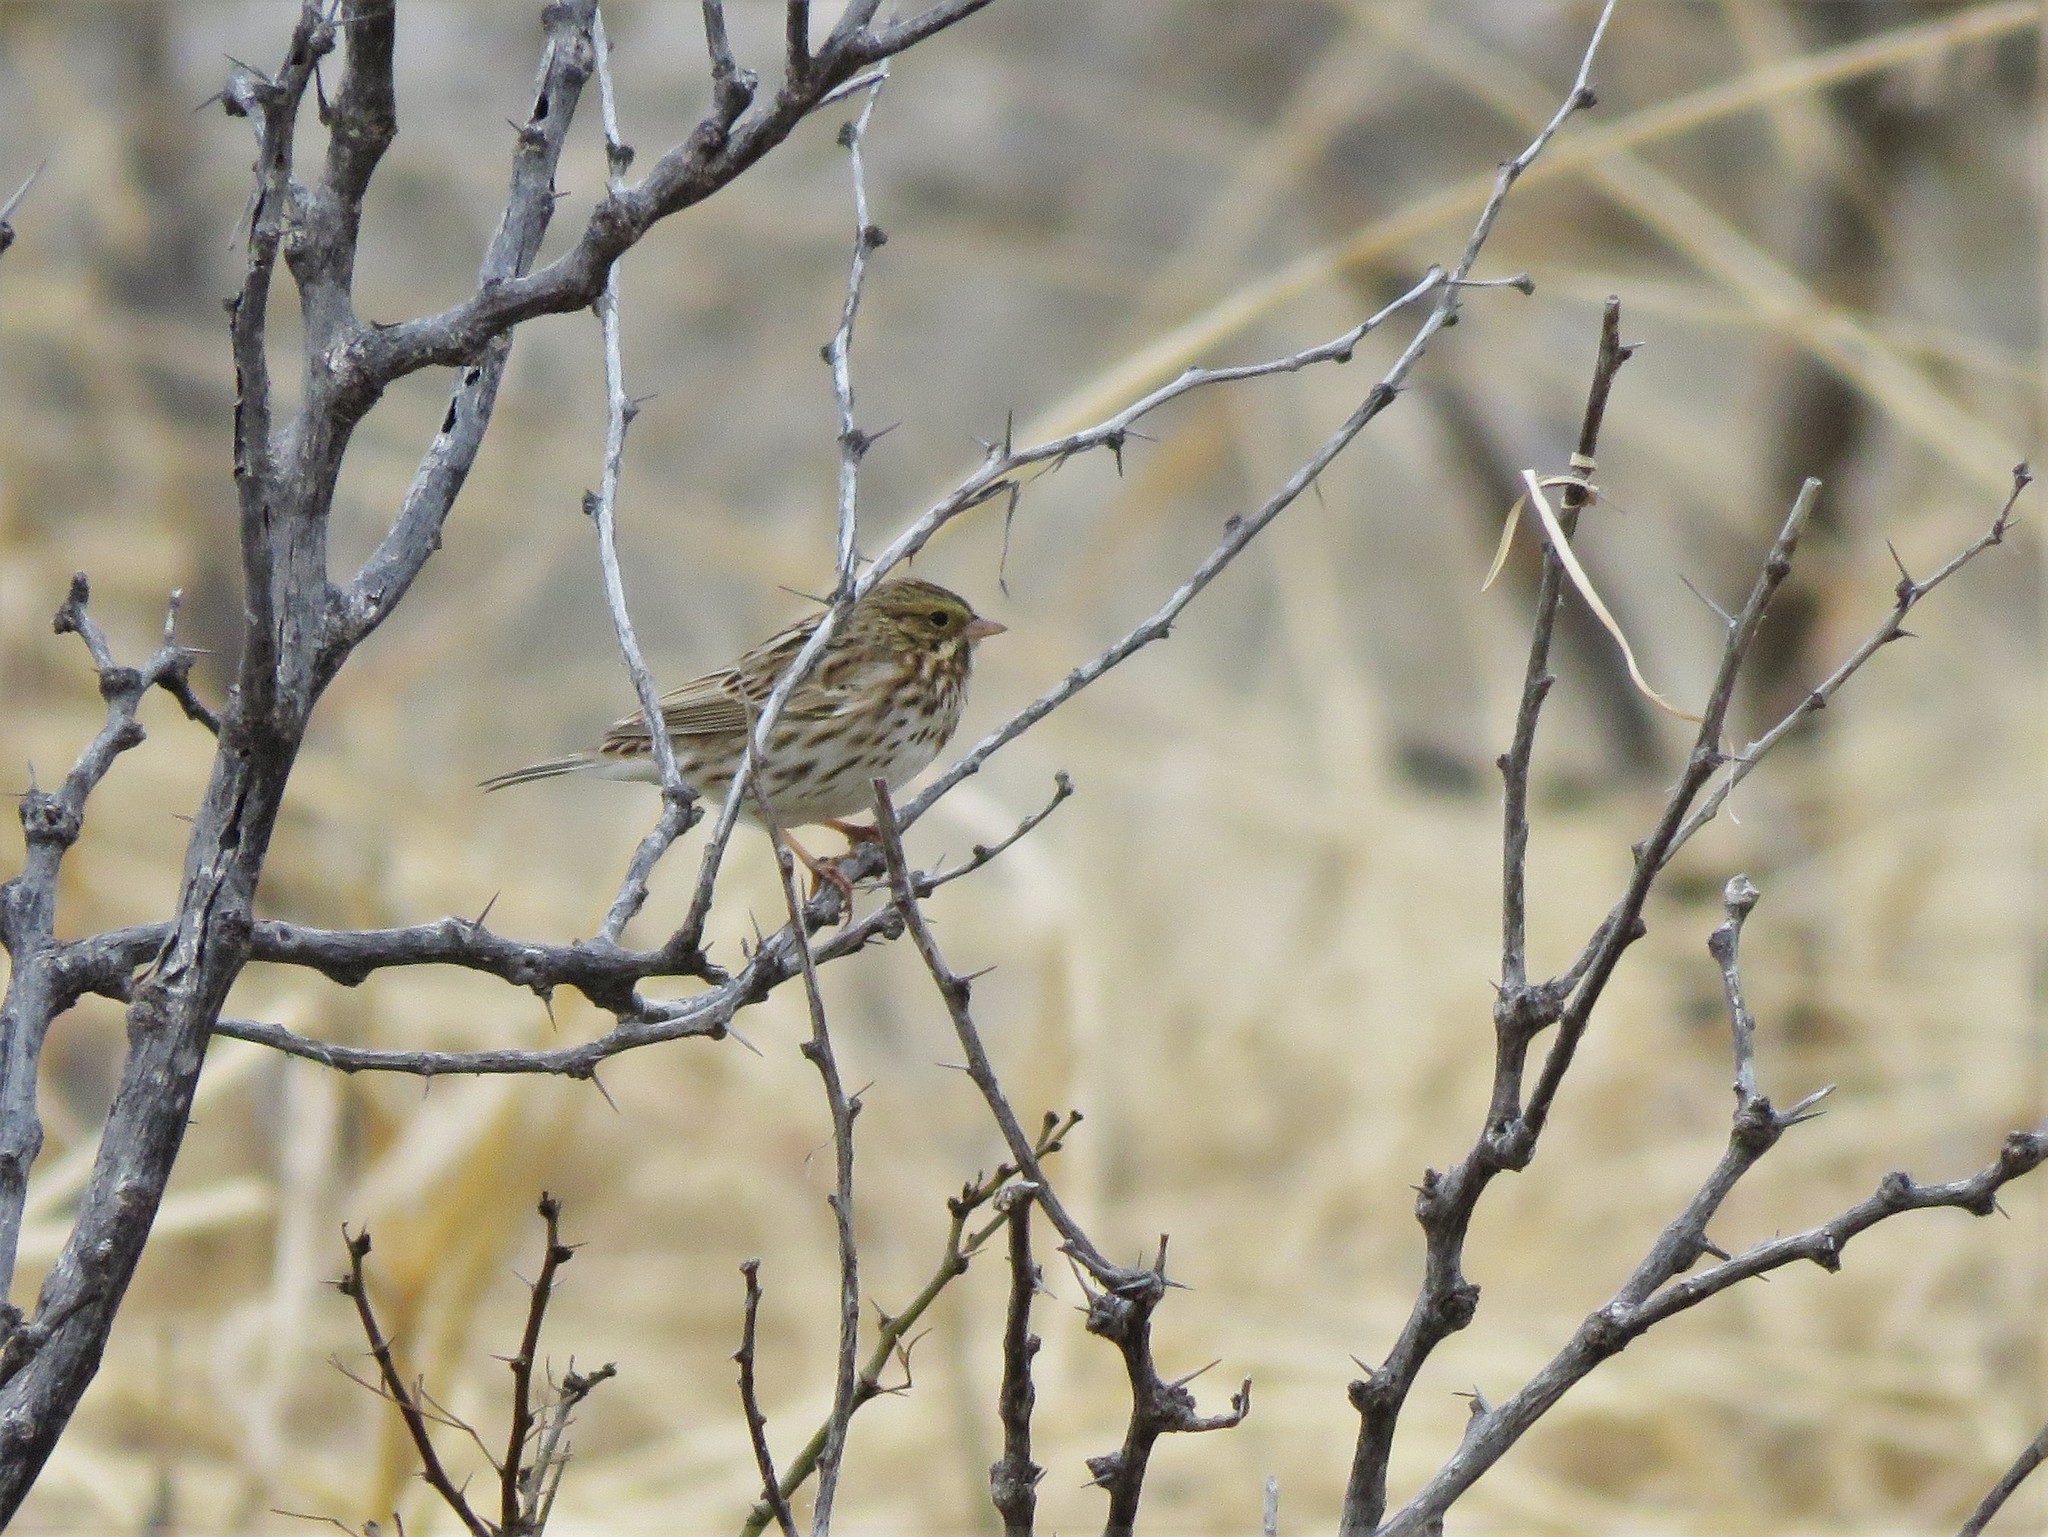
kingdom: Animalia
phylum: Chordata
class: Aves
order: Passeriformes
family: Passerellidae
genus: Passerculus
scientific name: Passerculus sandwichensis
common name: Savannah sparrow
